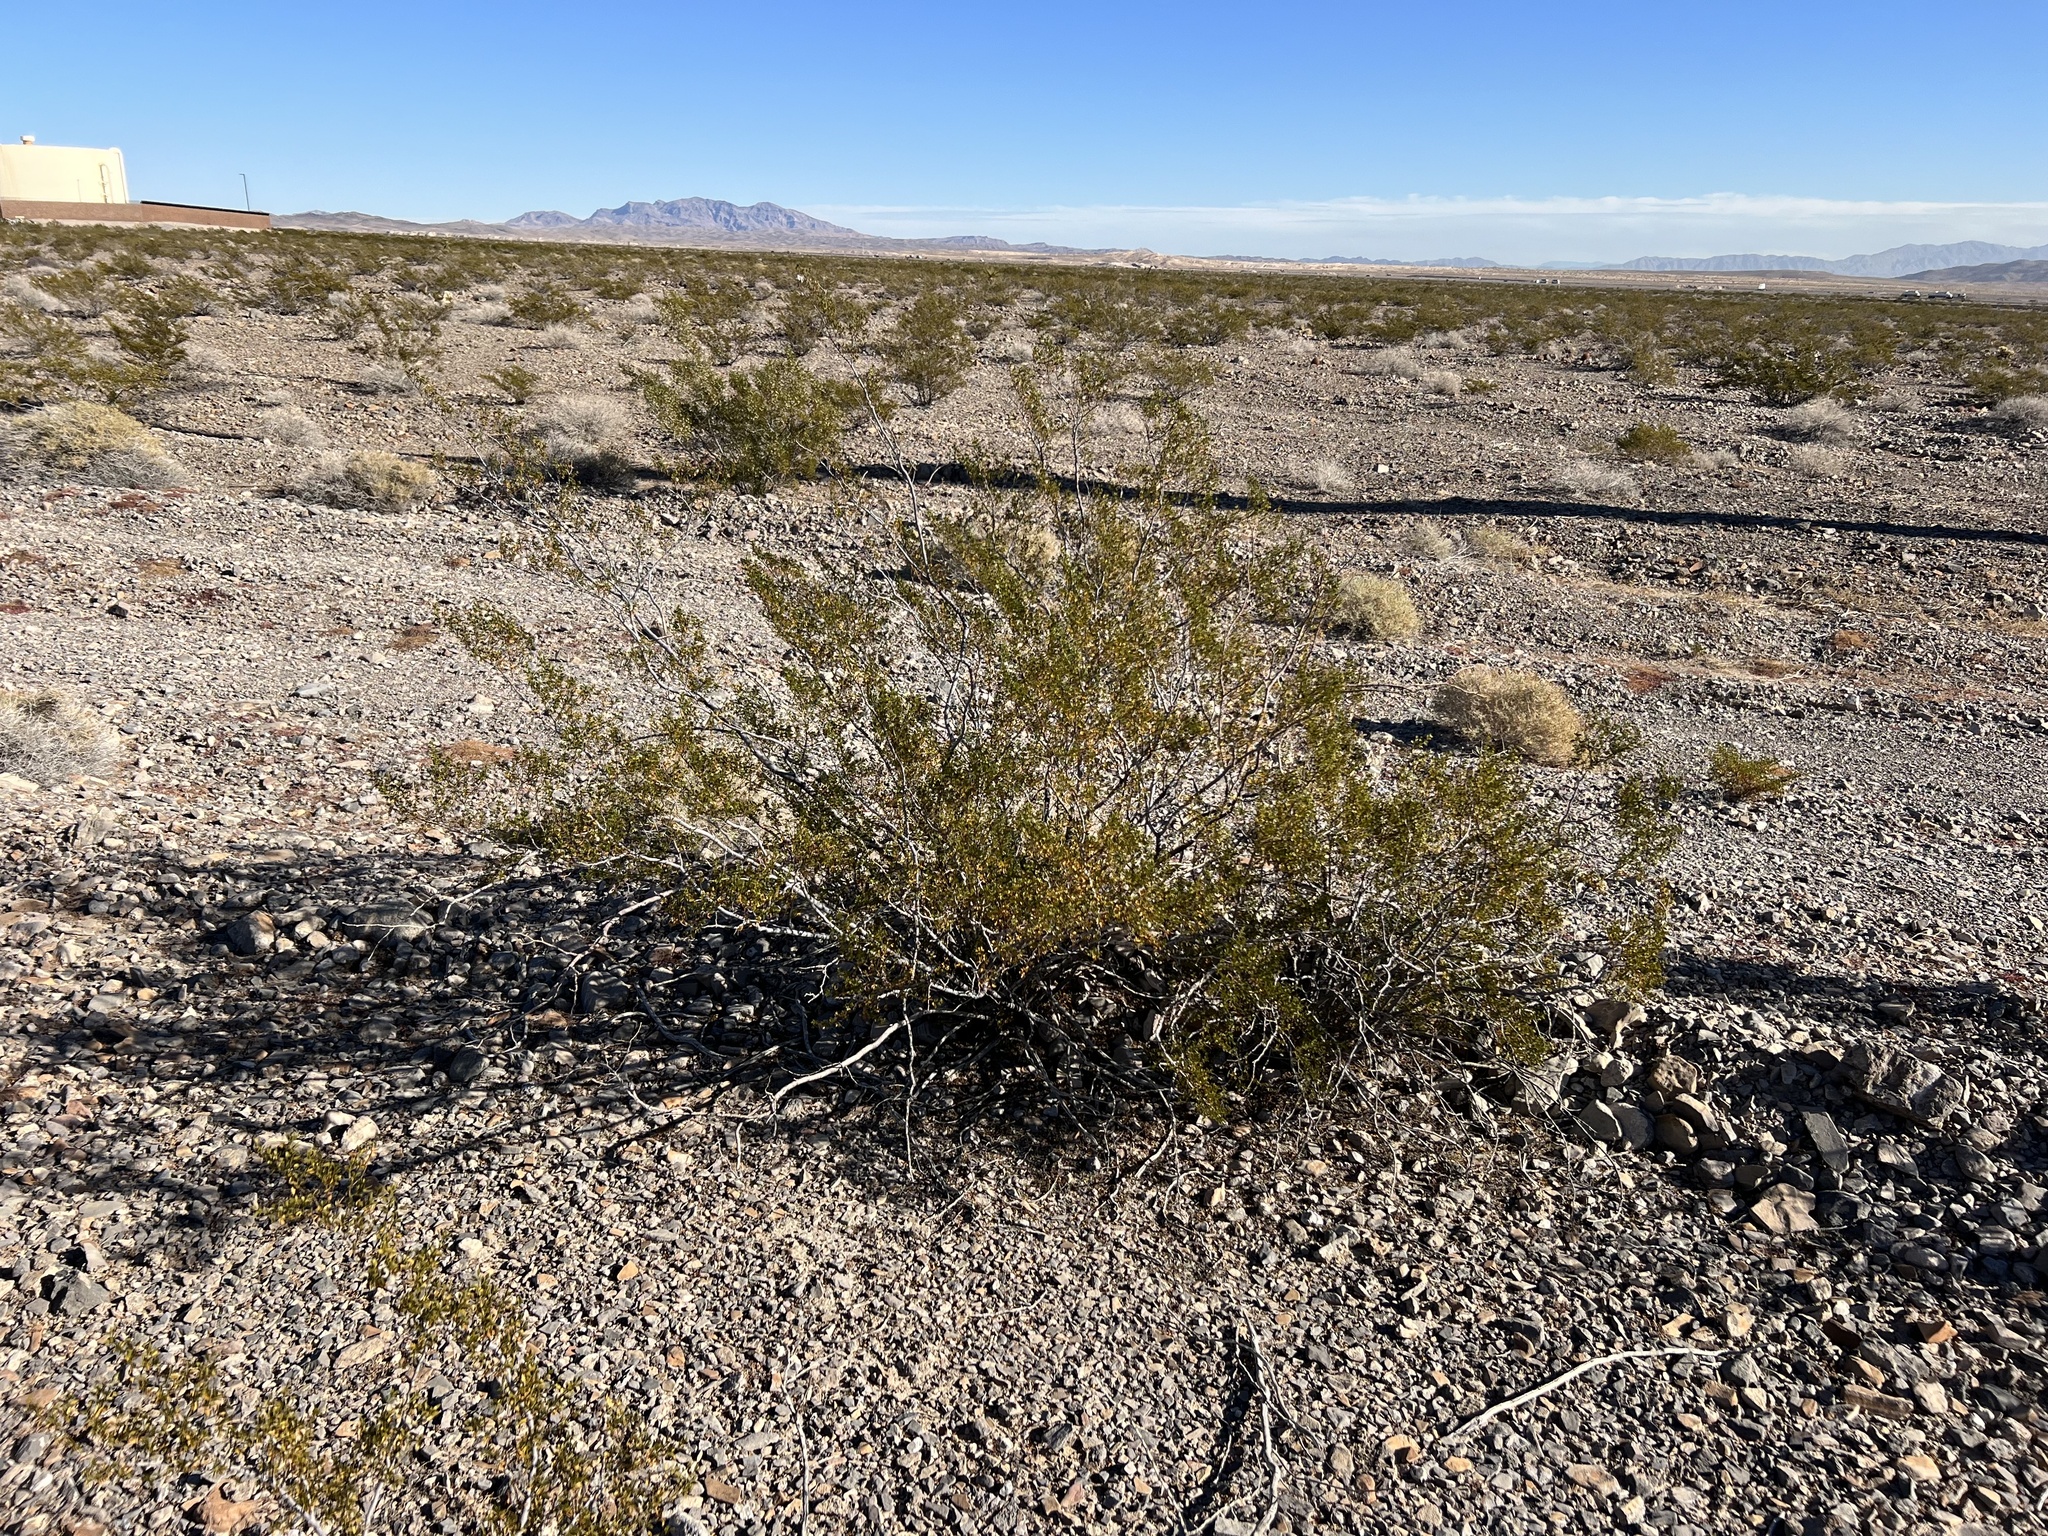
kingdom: Plantae
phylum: Tracheophyta
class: Magnoliopsida
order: Zygophyllales
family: Zygophyllaceae
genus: Larrea
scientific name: Larrea tridentata
